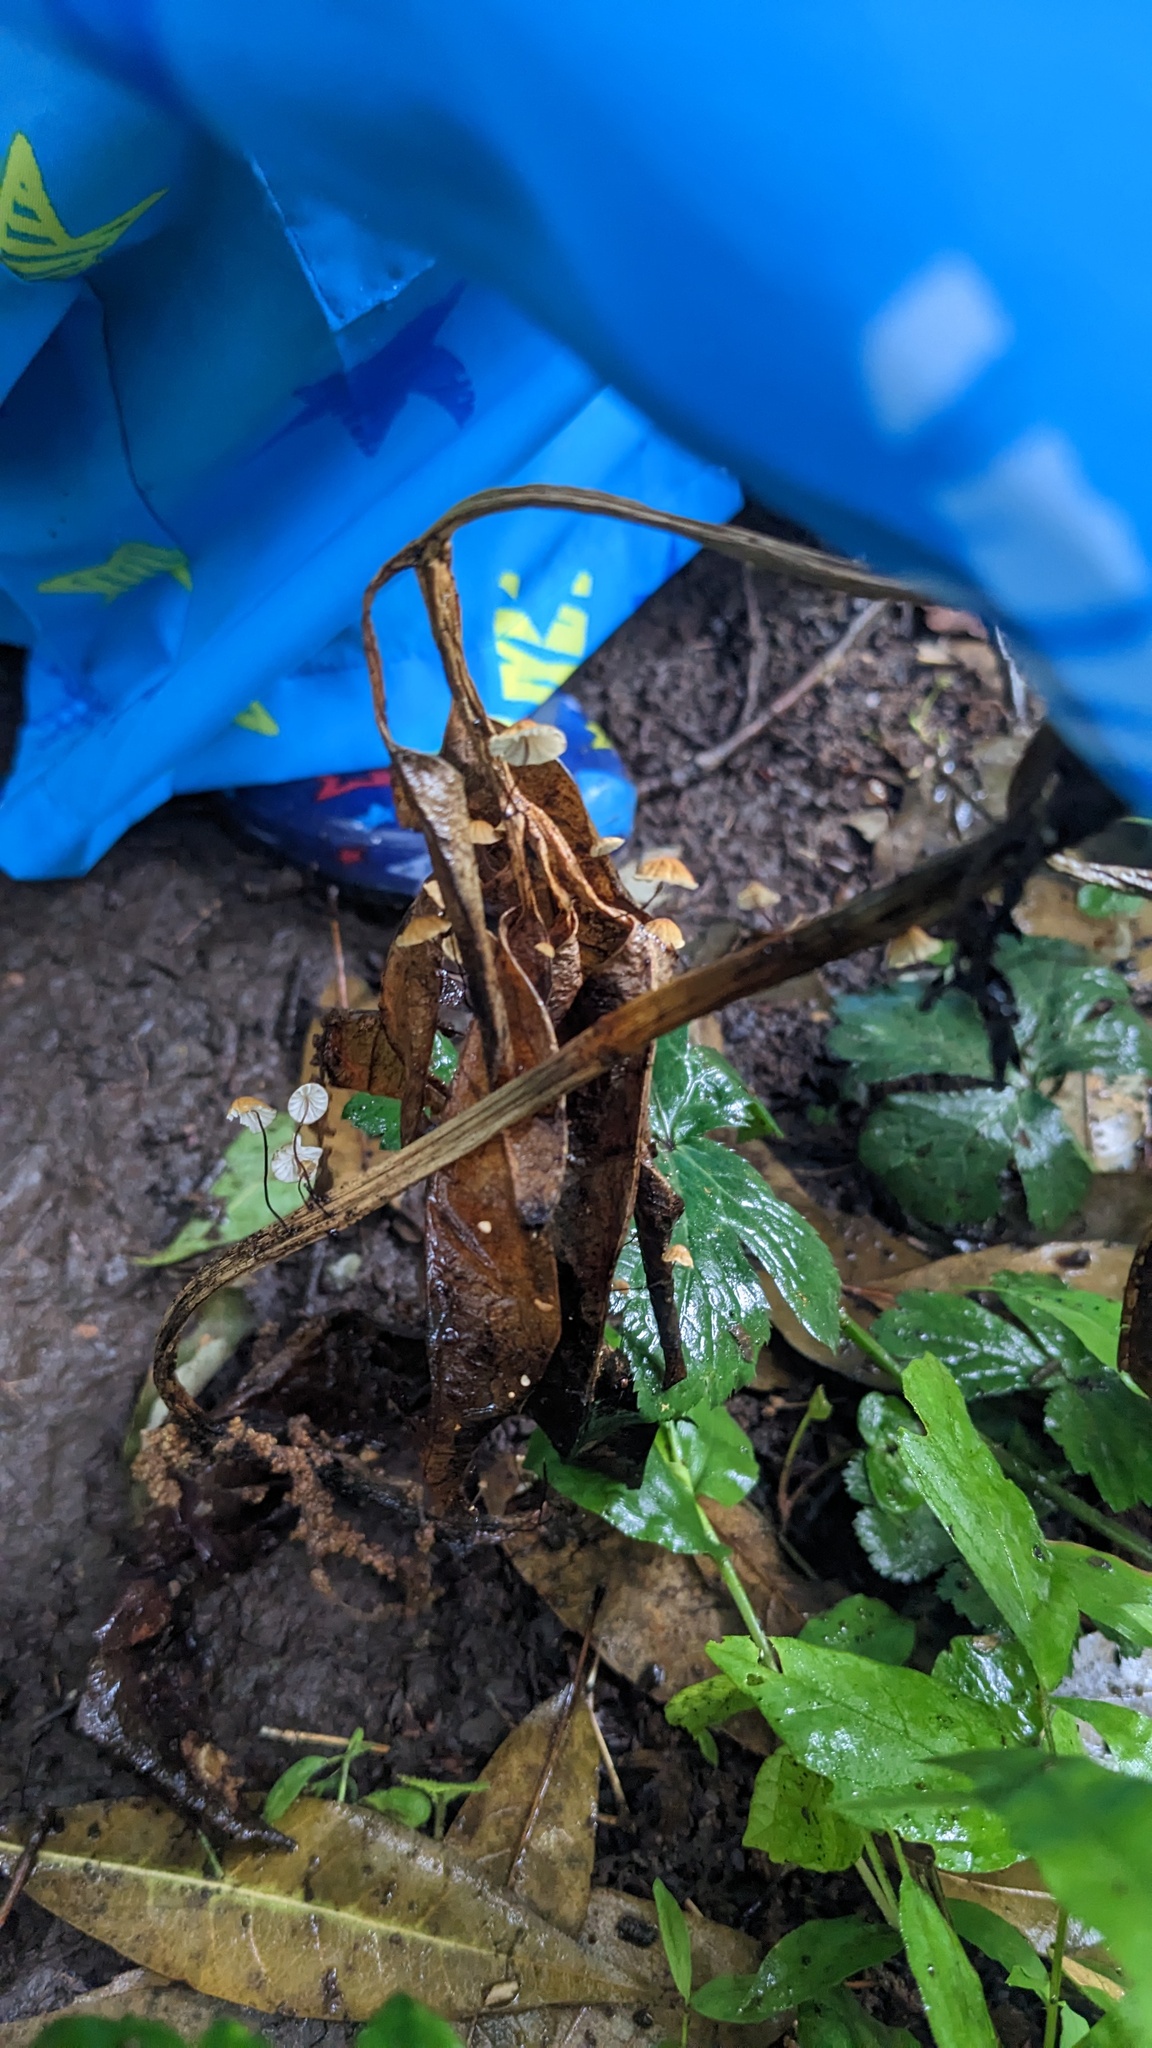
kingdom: Fungi
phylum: Basidiomycota
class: Agaricomycetes
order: Agaricales
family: Physalacriaceae
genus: Cryptomarasmius
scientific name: Cryptomarasmius aucubae
